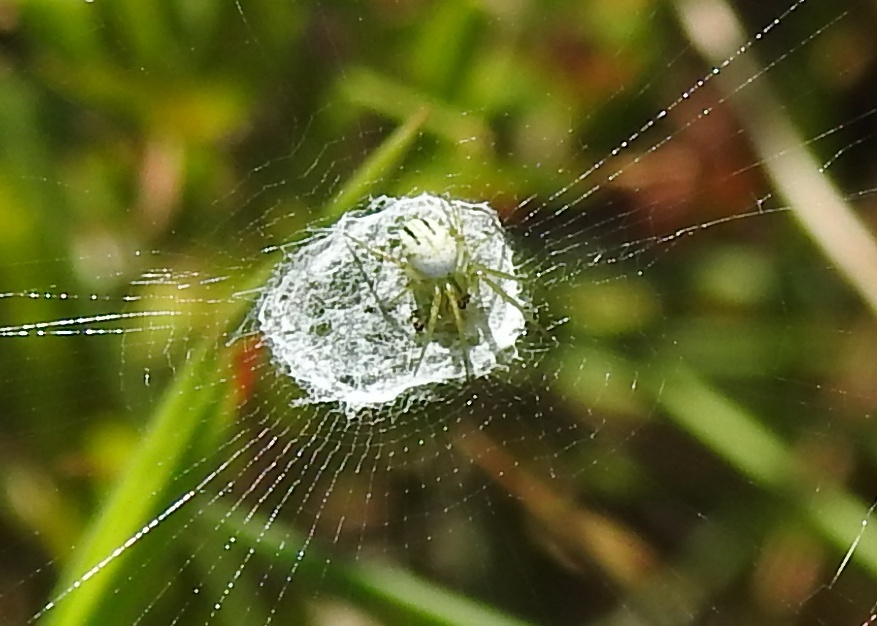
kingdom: Animalia
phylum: Arthropoda
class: Arachnida
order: Araneae
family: Araneidae
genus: Mangora
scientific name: Mangora gibberosa
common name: Lined orbweaver
